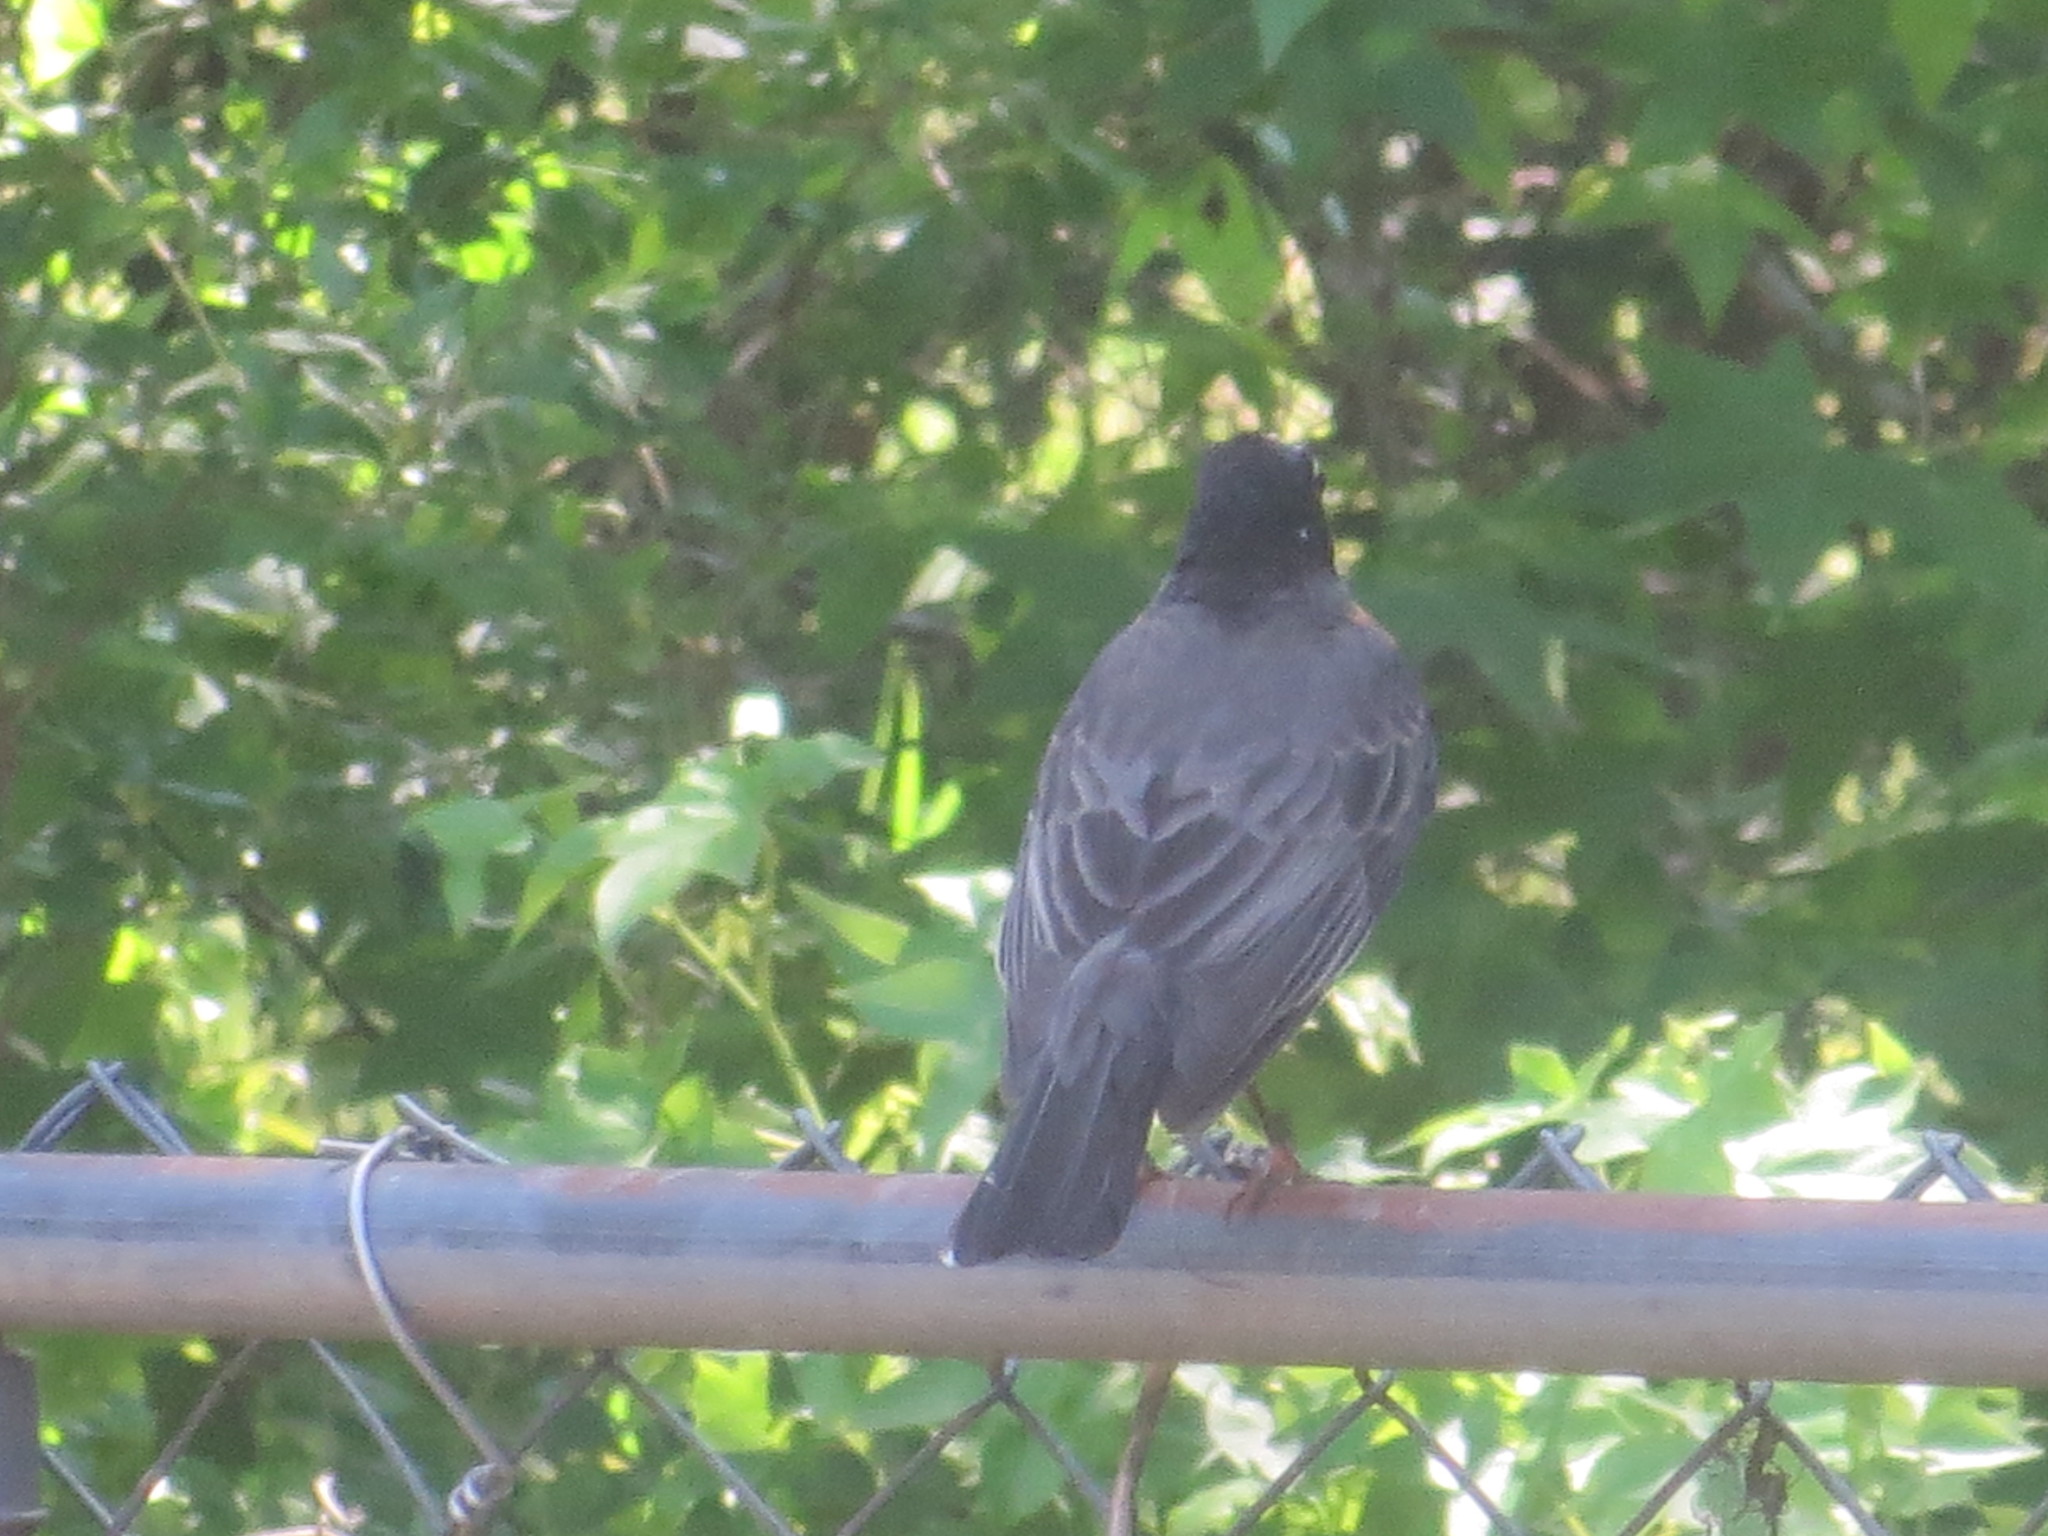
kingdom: Animalia
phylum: Chordata
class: Aves
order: Passeriformes
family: Turdidae
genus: Turdus
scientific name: Turdus migratorius
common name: American robin
